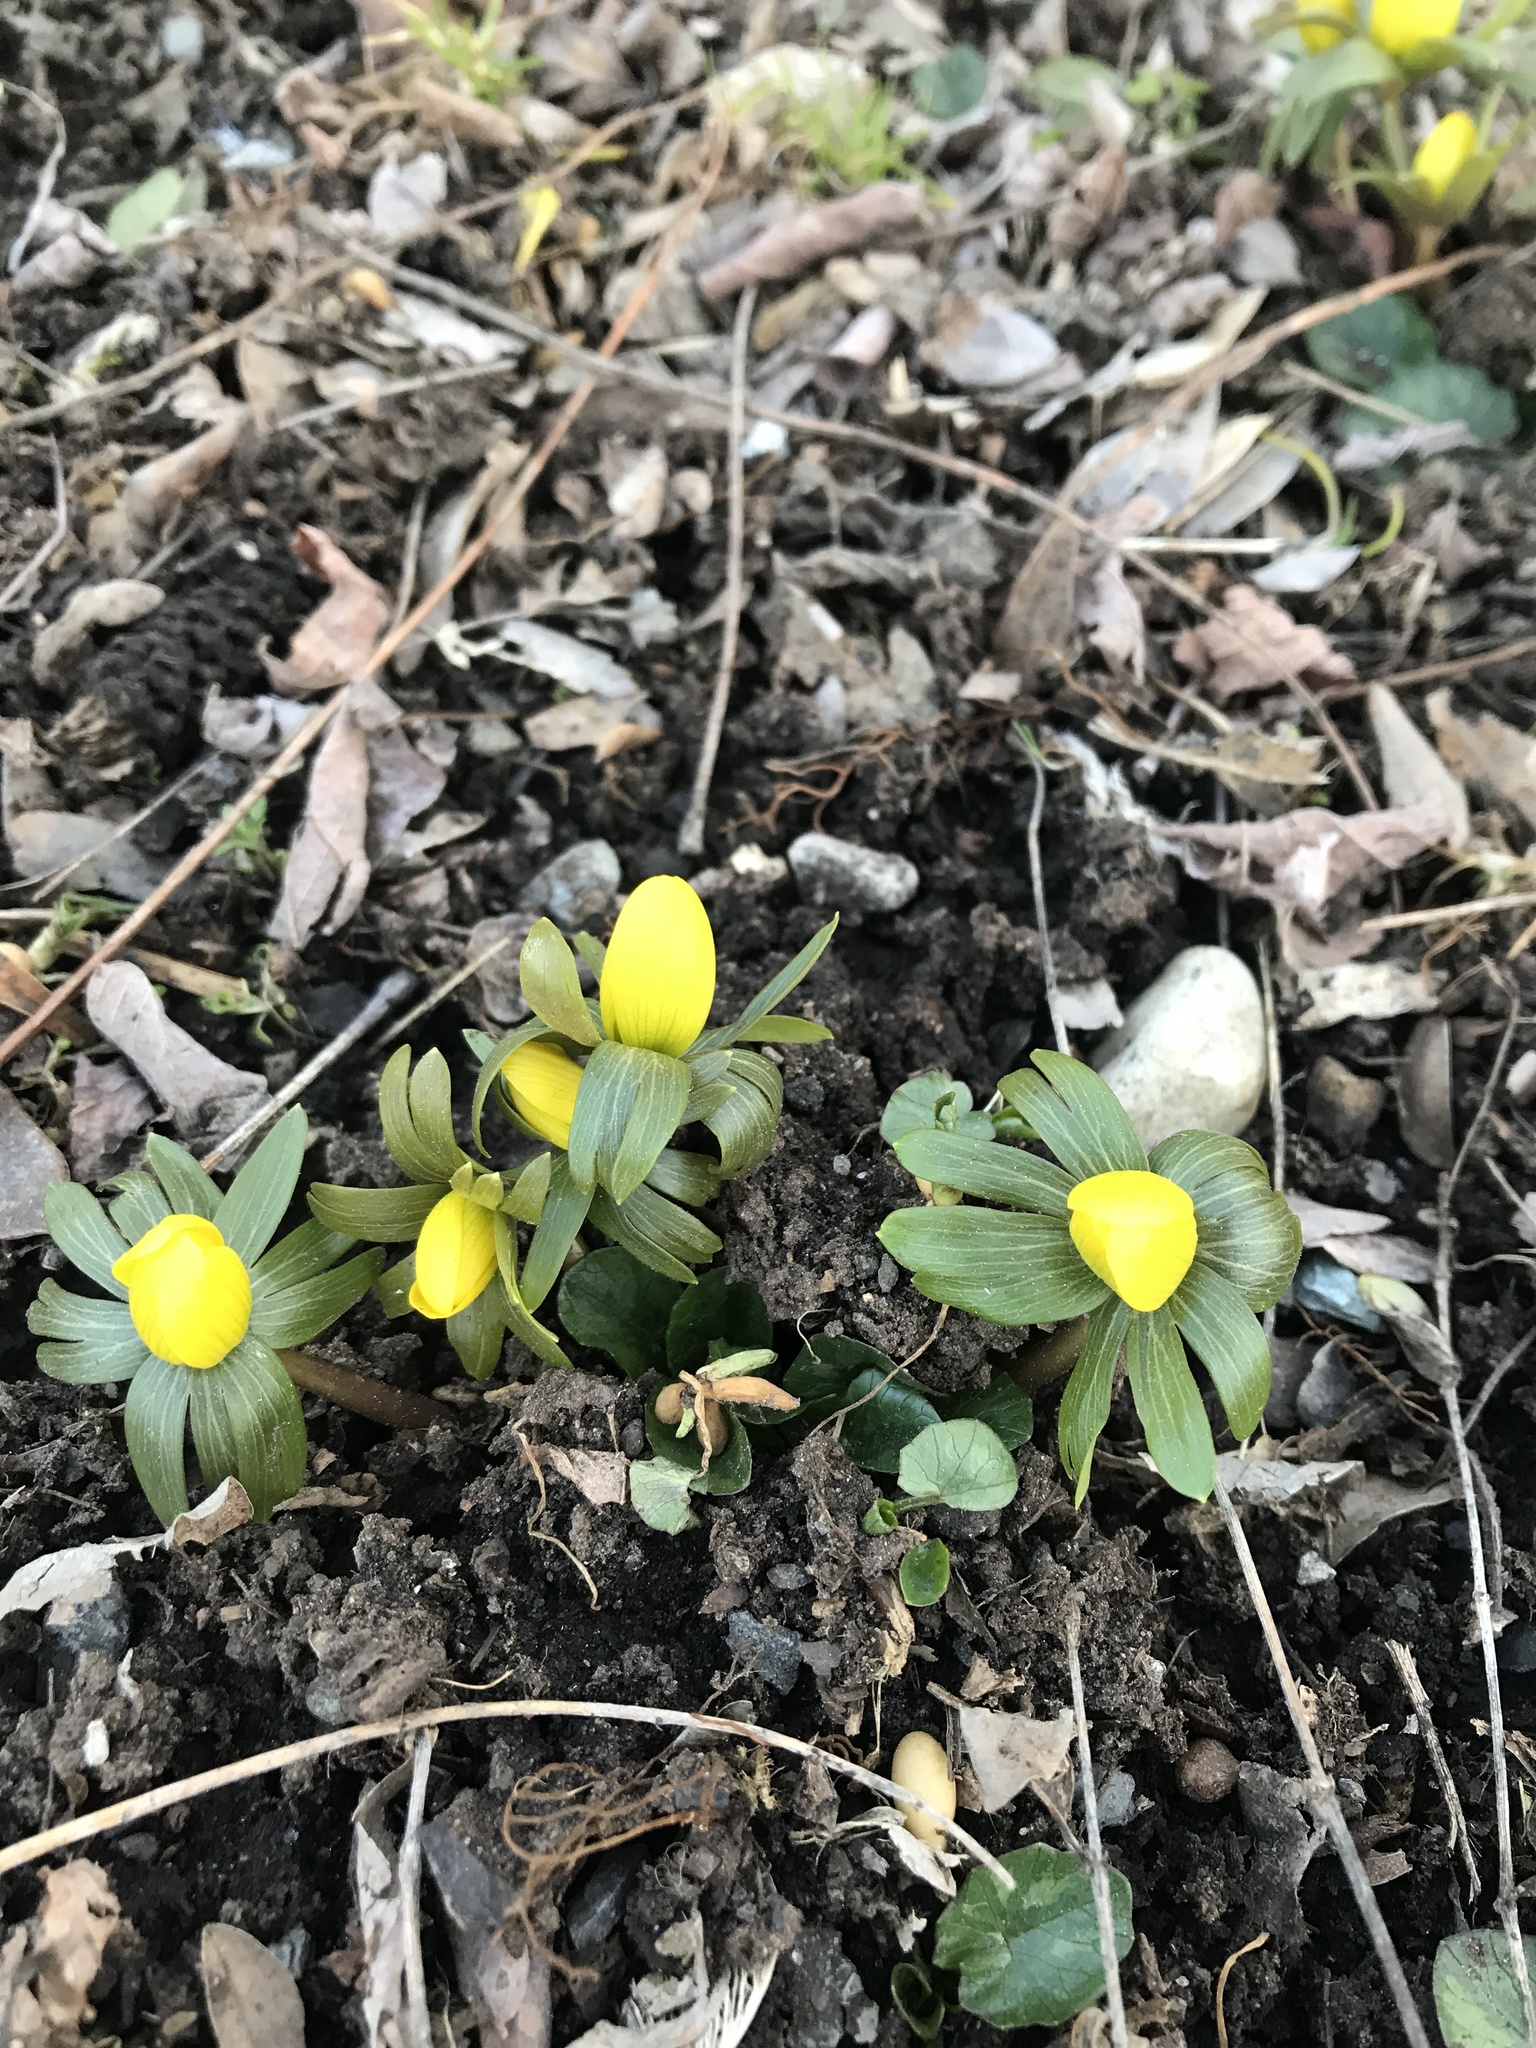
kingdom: Plantae
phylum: Tracheophyta
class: Magnoliopsida
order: Ranunculales
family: Ranunculaceae
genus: Eranthis
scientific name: Eranthis hyemalis
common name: Winter aconite
